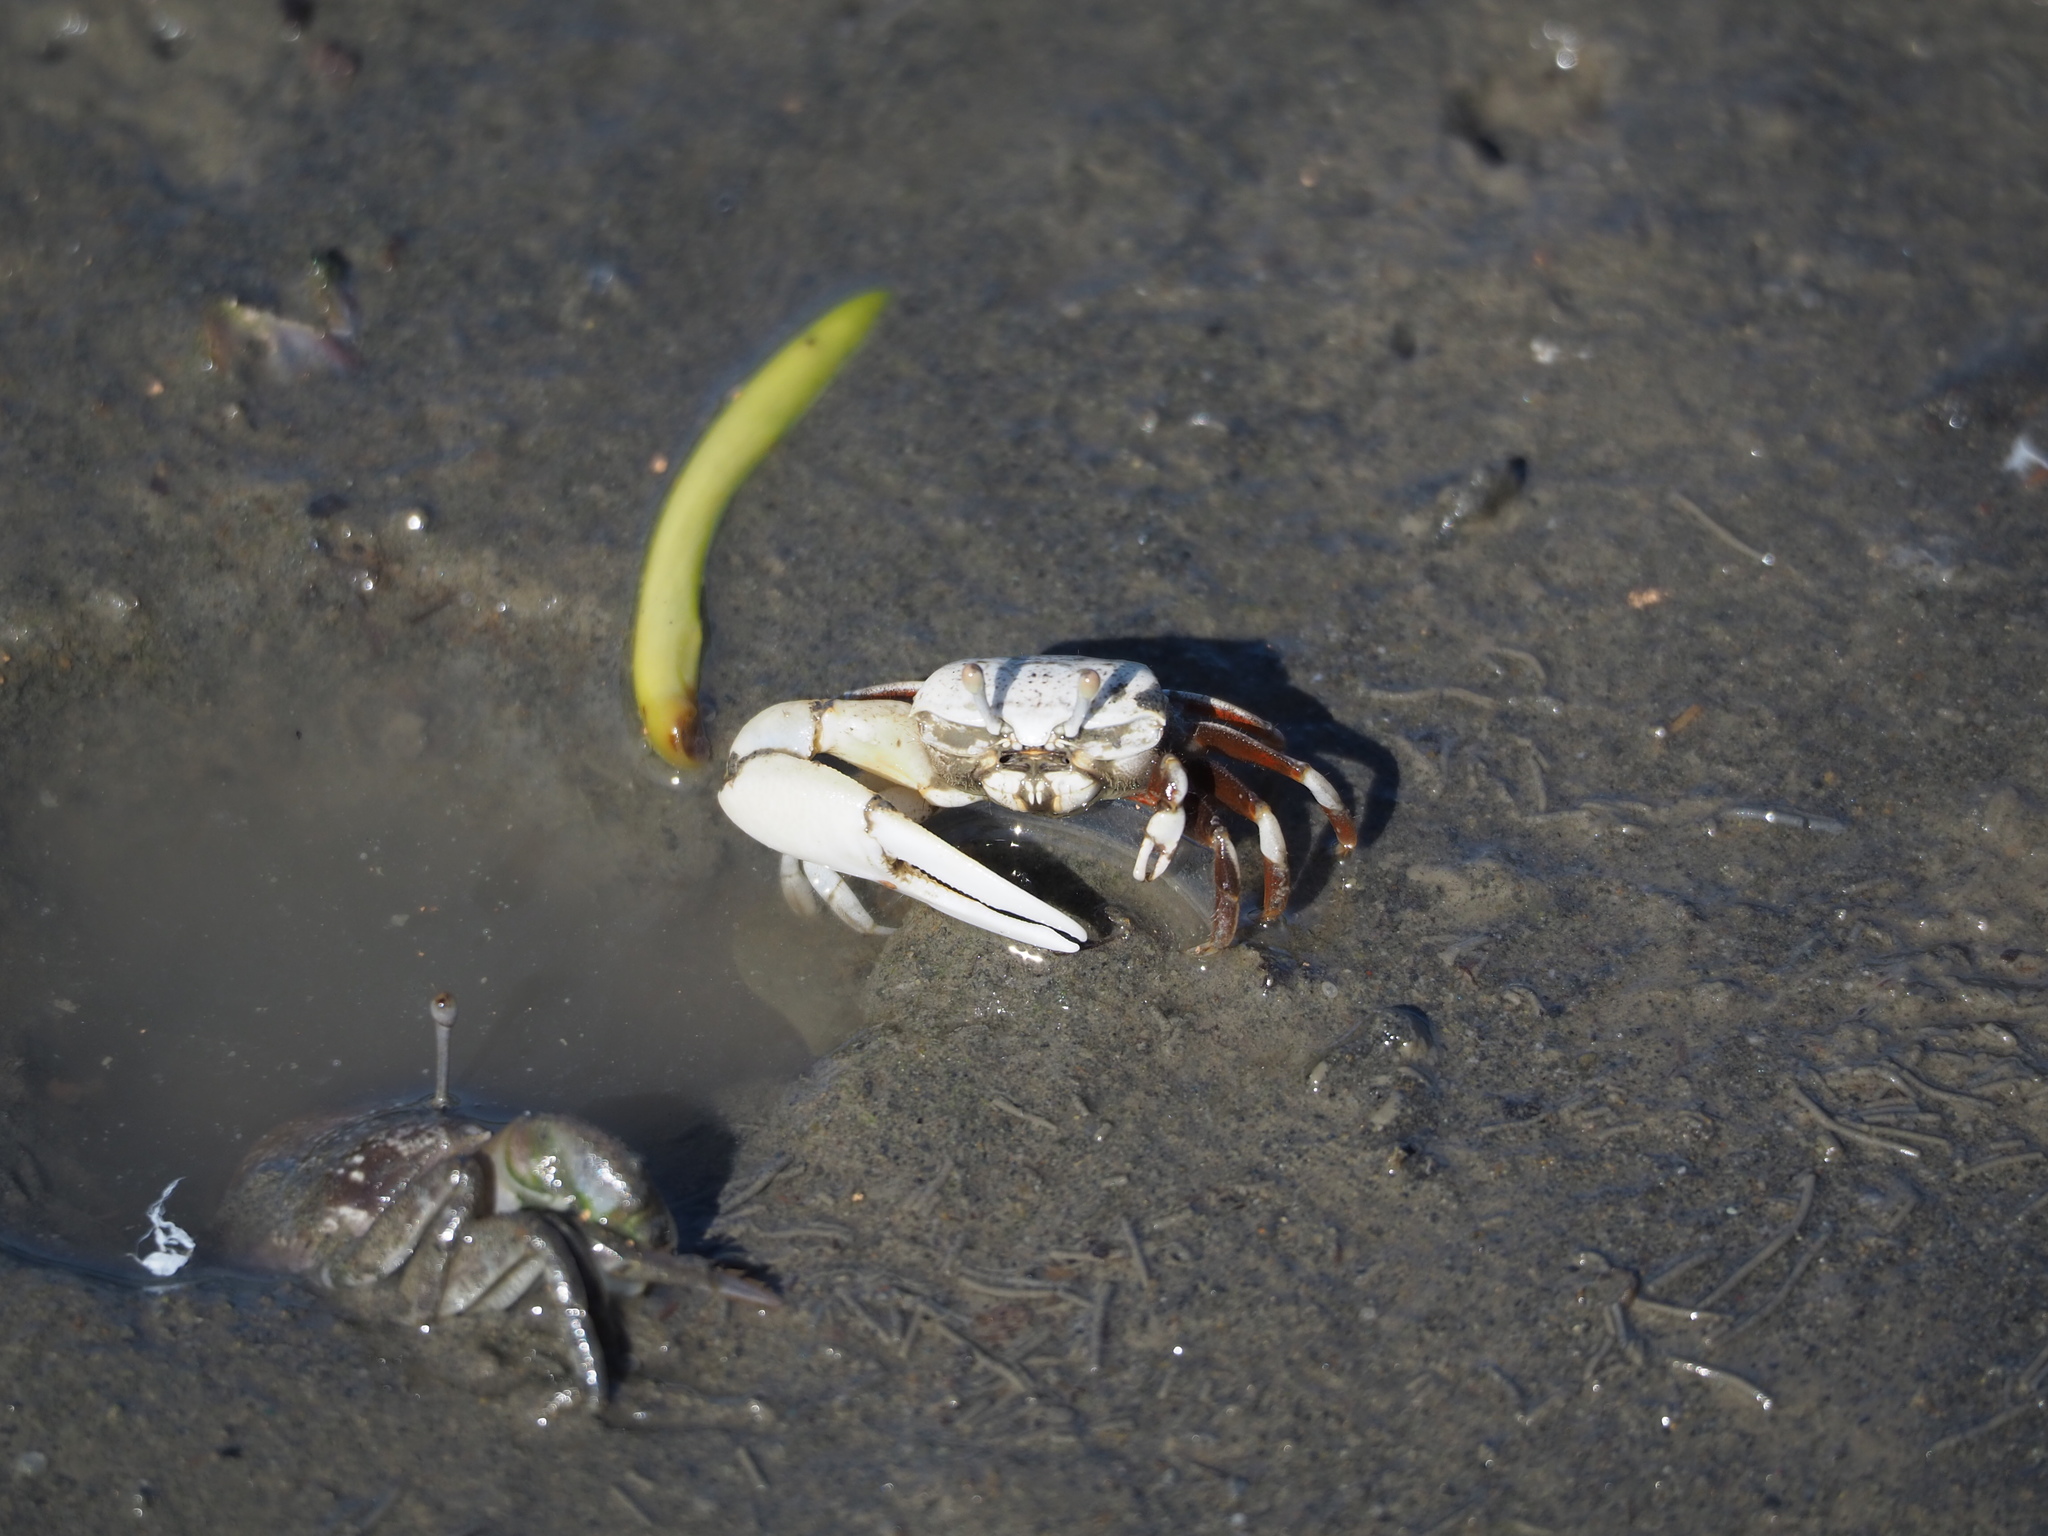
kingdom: Animalia
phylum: Arthropoda
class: Malacostraca
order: Decapoda
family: Ocypodidae
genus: Austruca
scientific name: Austruca lactea
